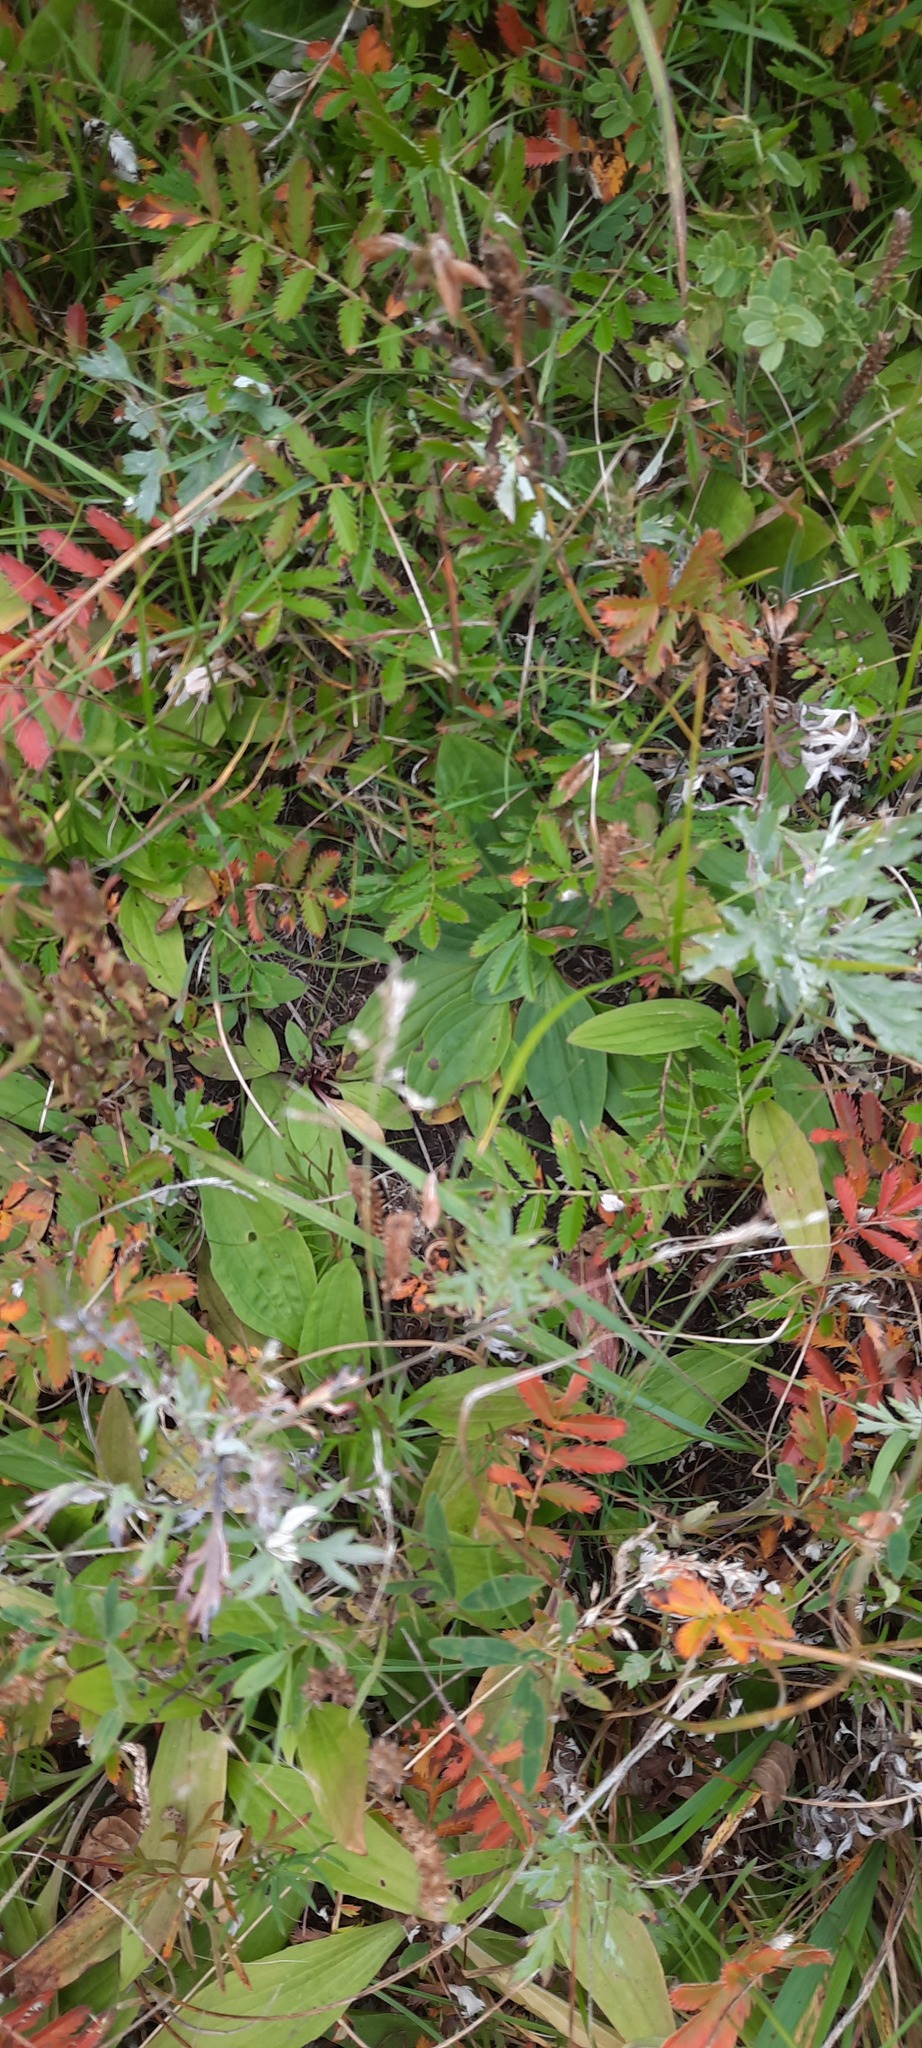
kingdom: Plantae
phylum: Tracheophyta
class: Magnoliopsida
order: Lamiales
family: Plantaginaceae
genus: Plantago
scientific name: Plantago depressa
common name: Depressed plantain
